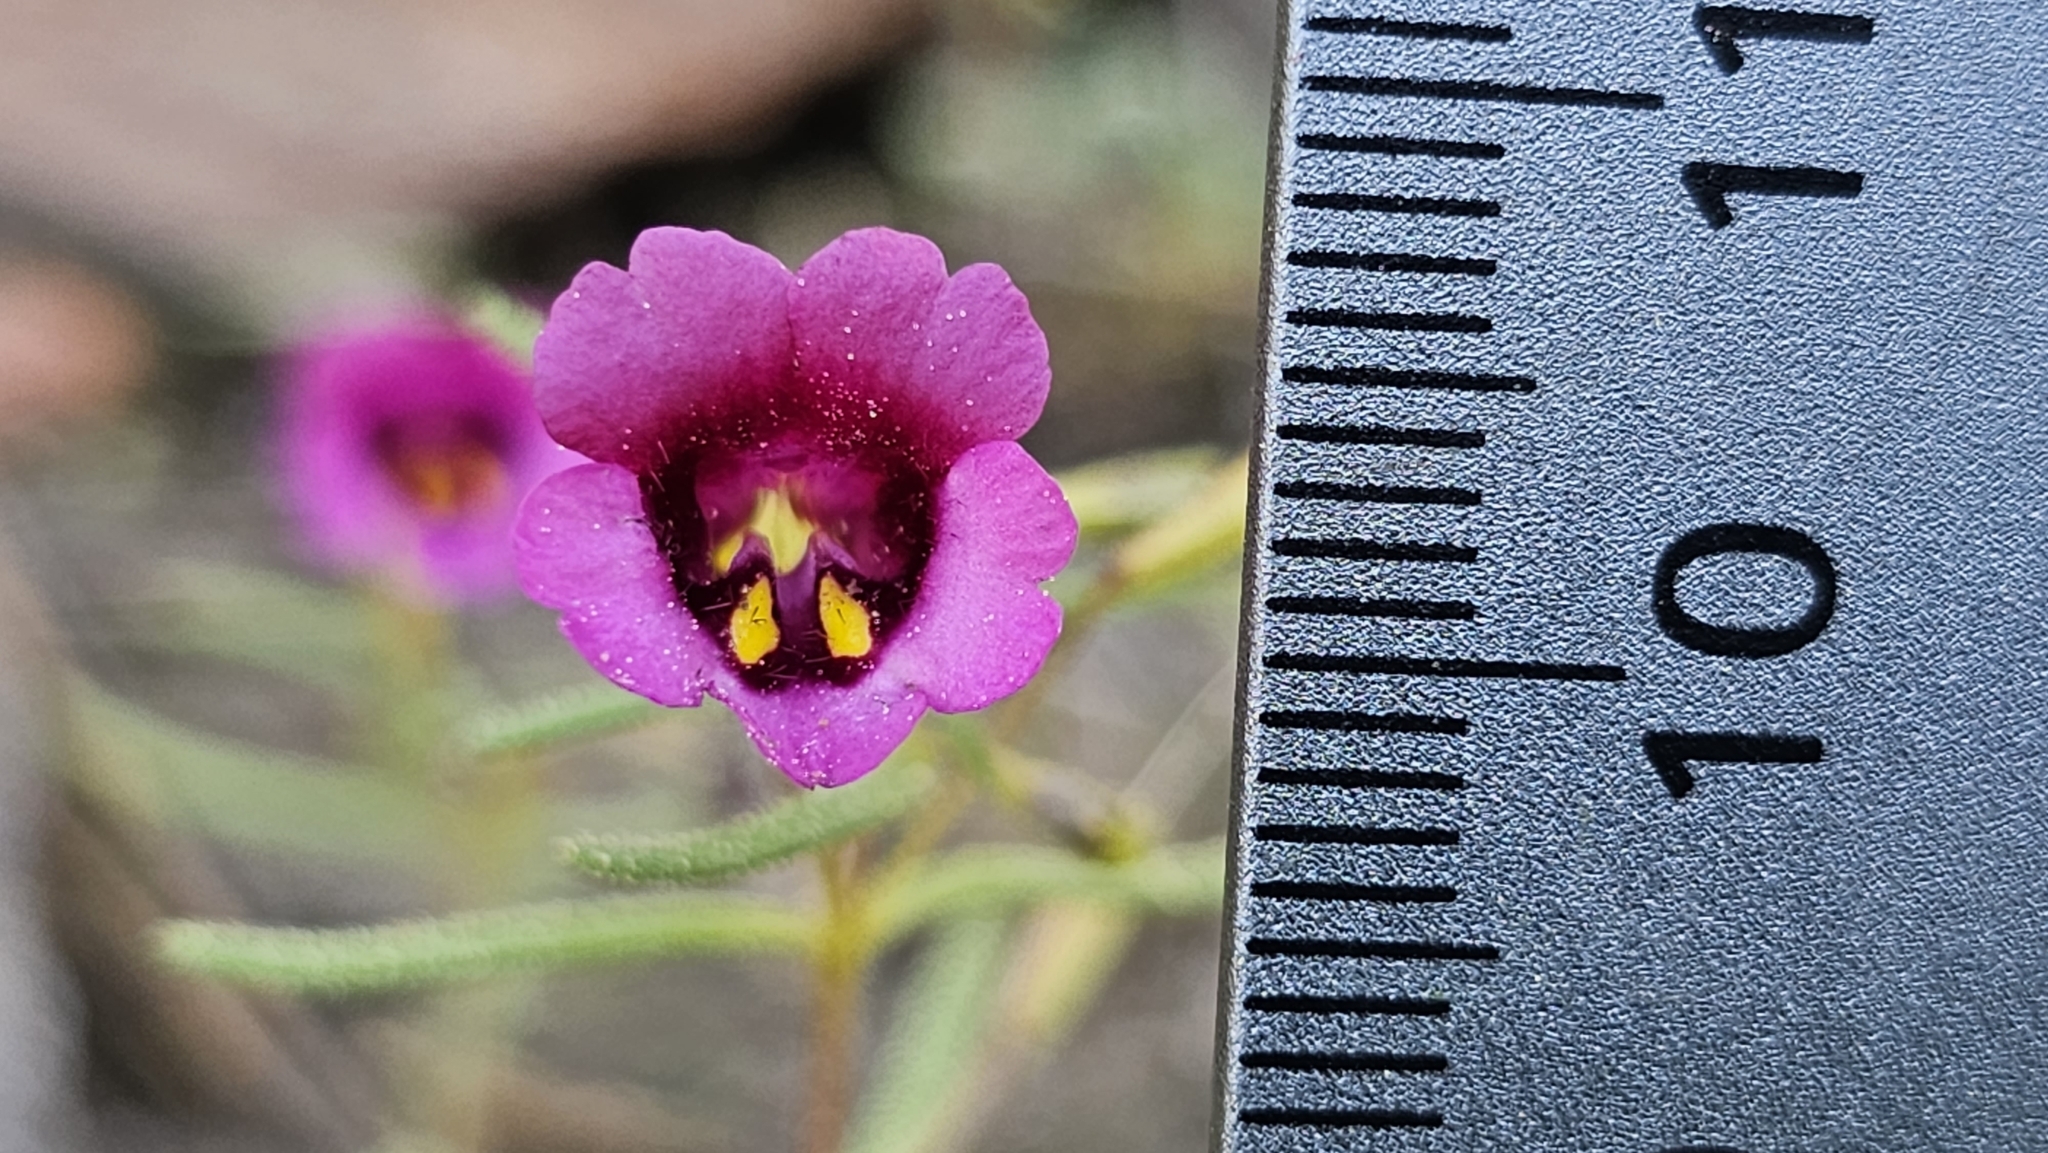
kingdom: Plantae
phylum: Tracheophyta
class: Magnoliopsida
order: Lamiales
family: Phrymaceae
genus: Erythranthe
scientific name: Erythranthe discolor
